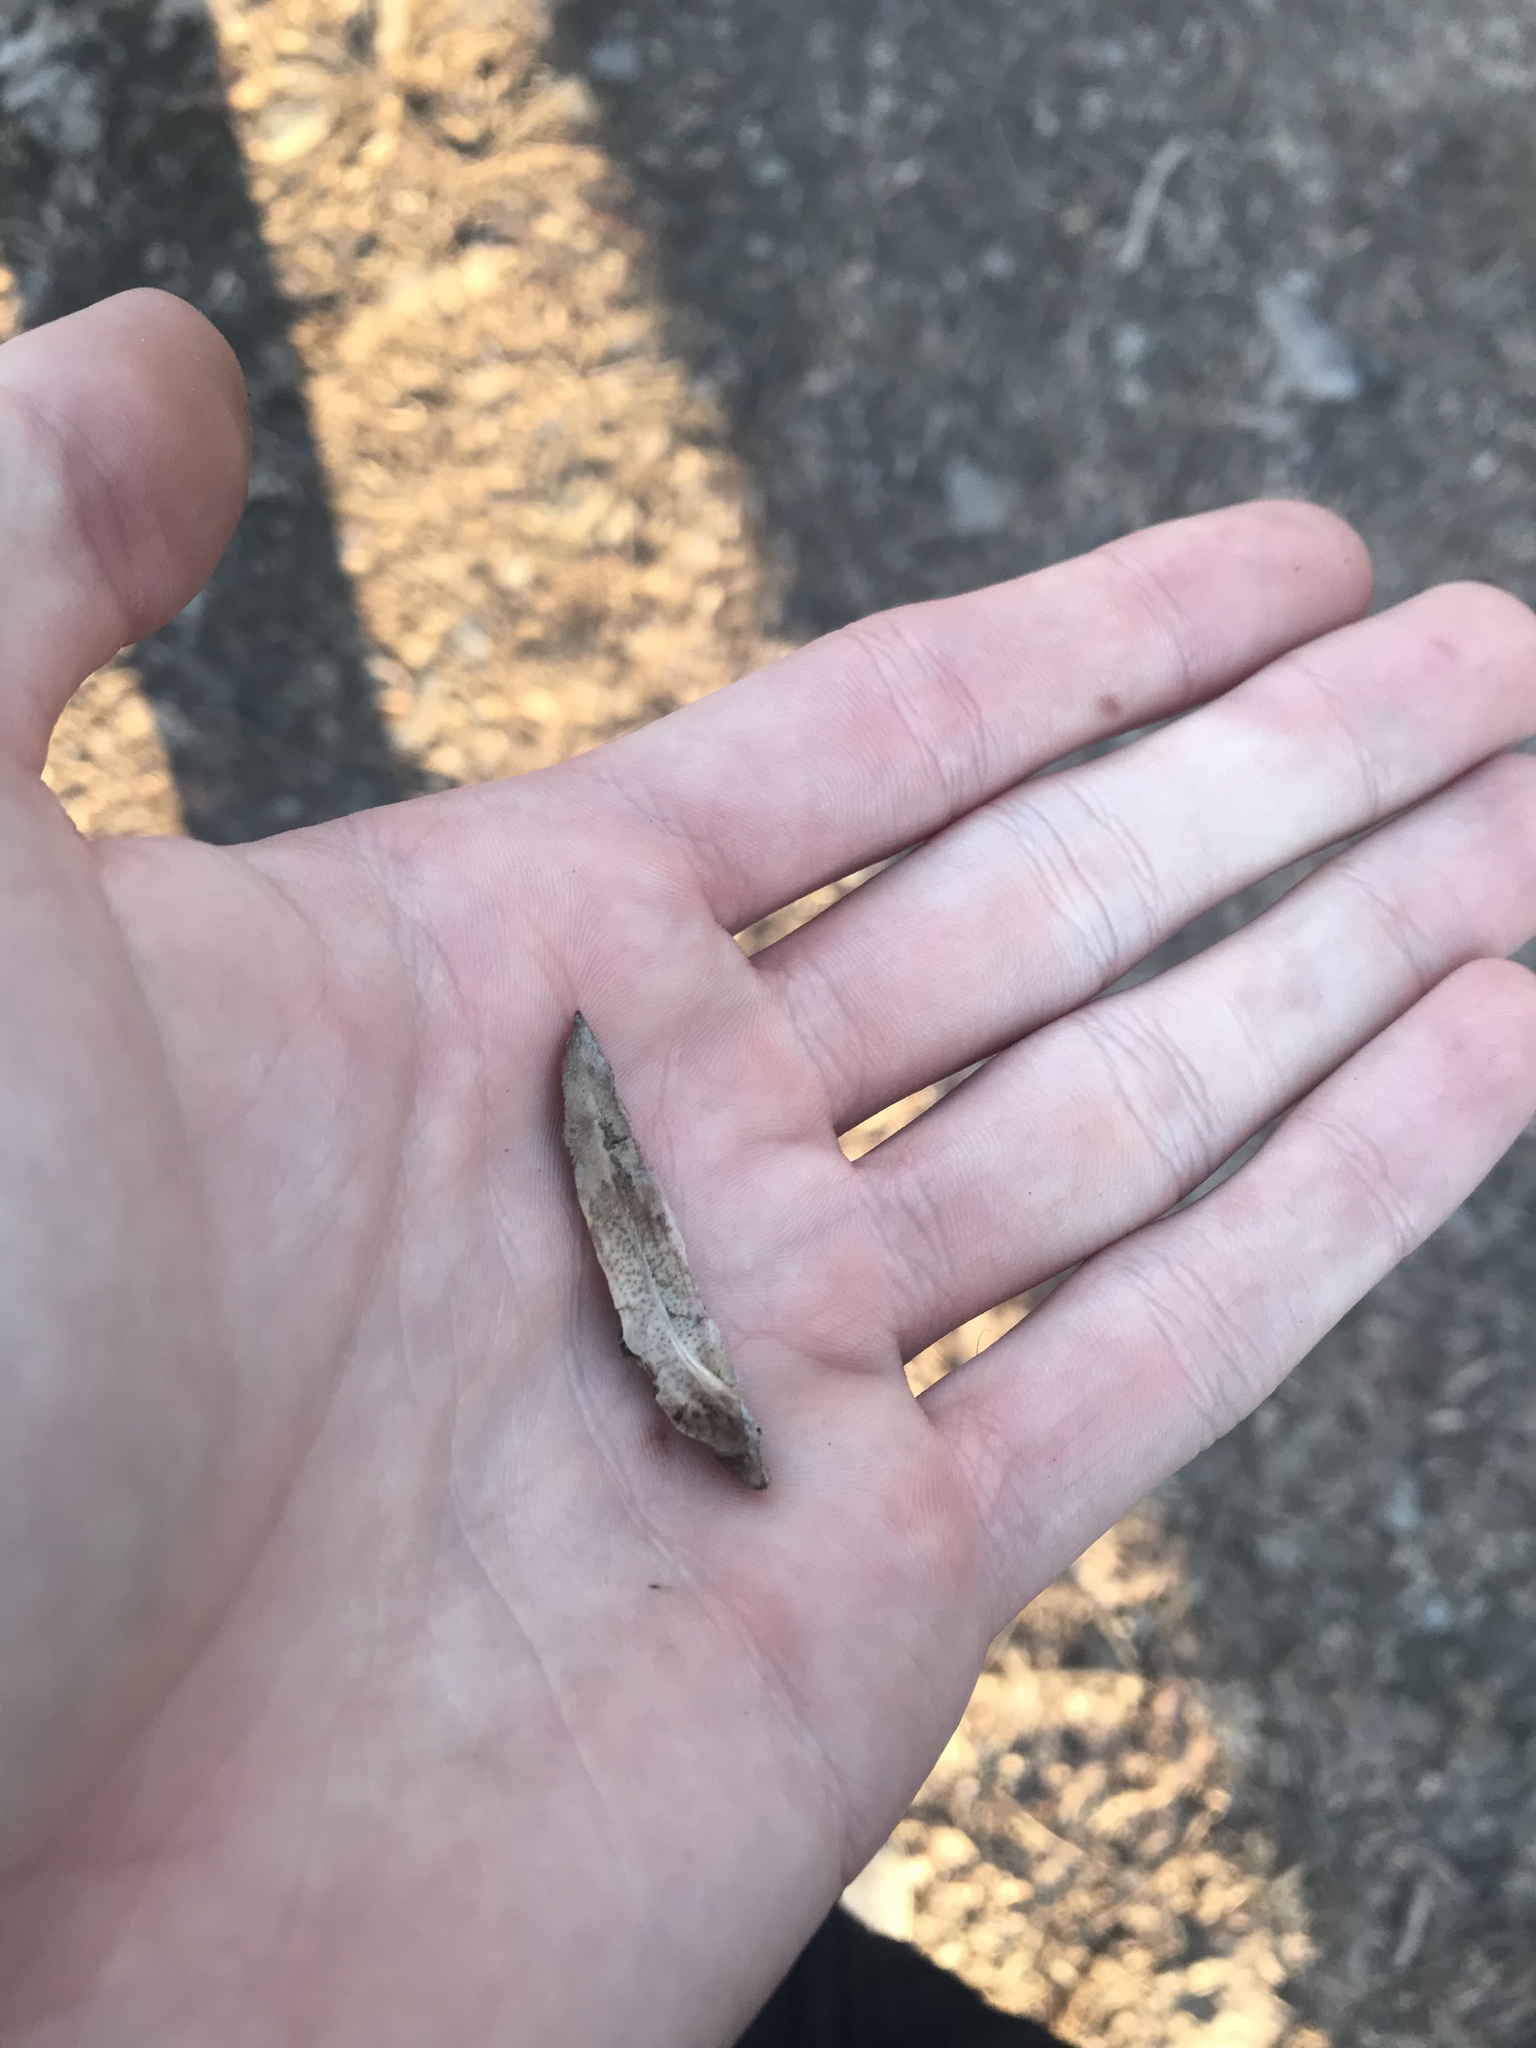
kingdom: Plantae
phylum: Tracheophyta
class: Magnoliopsida
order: Magnoliales
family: Magnoliaceae
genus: Liriodendron
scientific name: Liriodendron tulipifera
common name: Tulip tree
